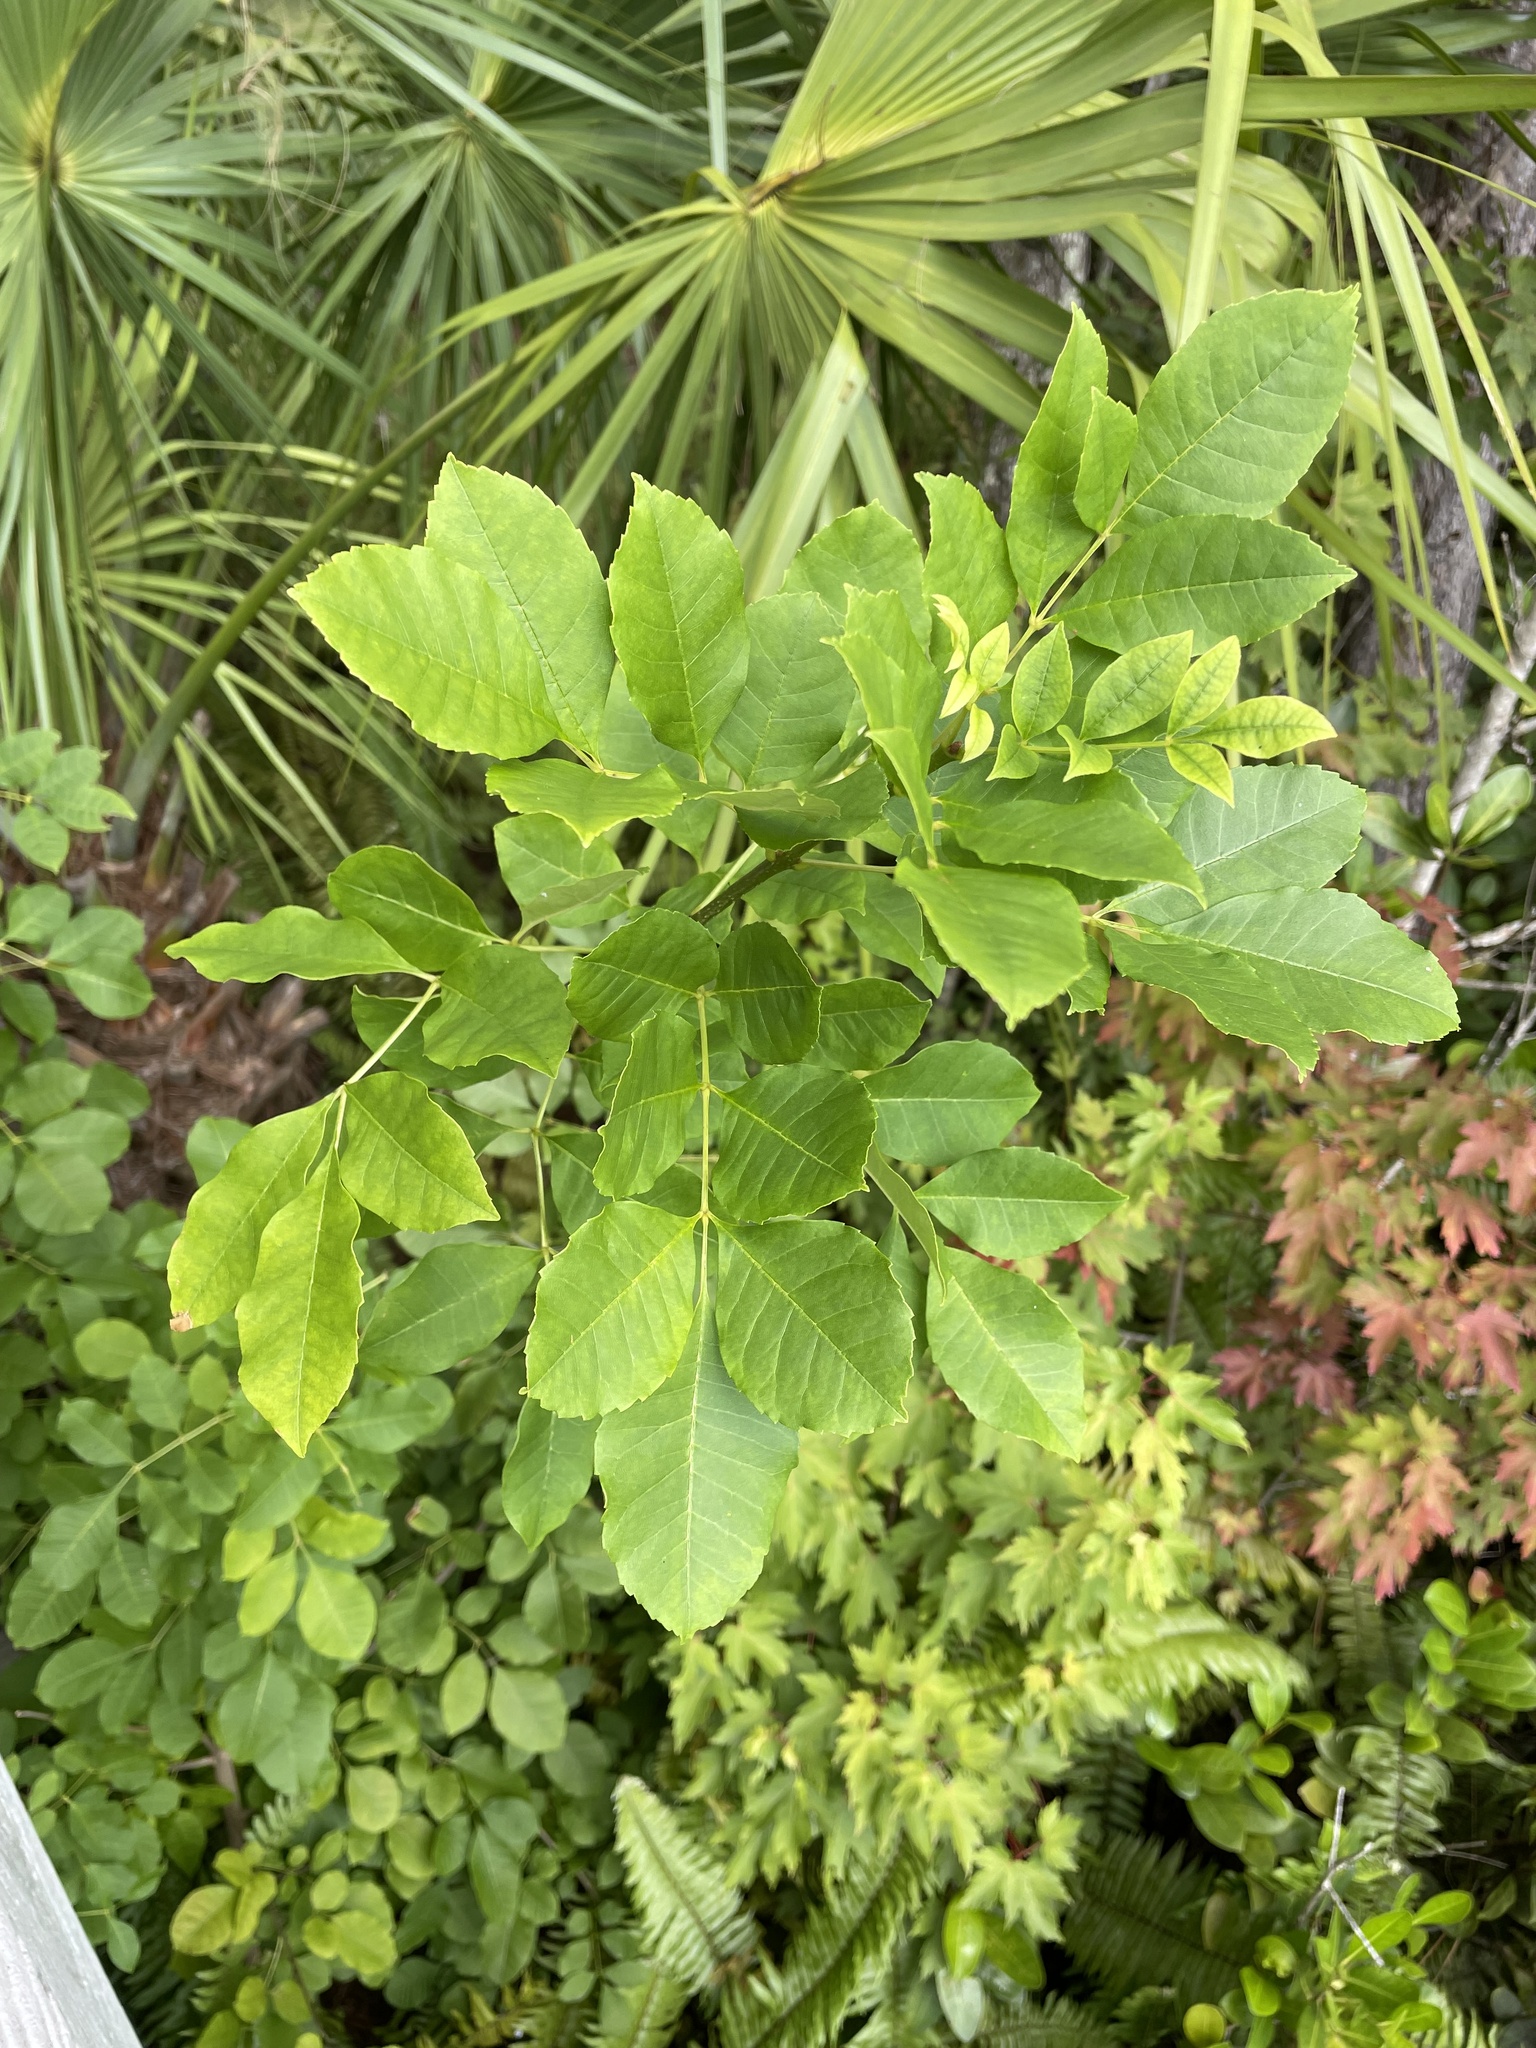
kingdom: Plantae
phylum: Tracheophyta
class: Magnoliopsida
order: Lamiales
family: Oleaceae
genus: Fraxinus
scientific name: Fraxinus caroliniana
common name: Carolina ash
